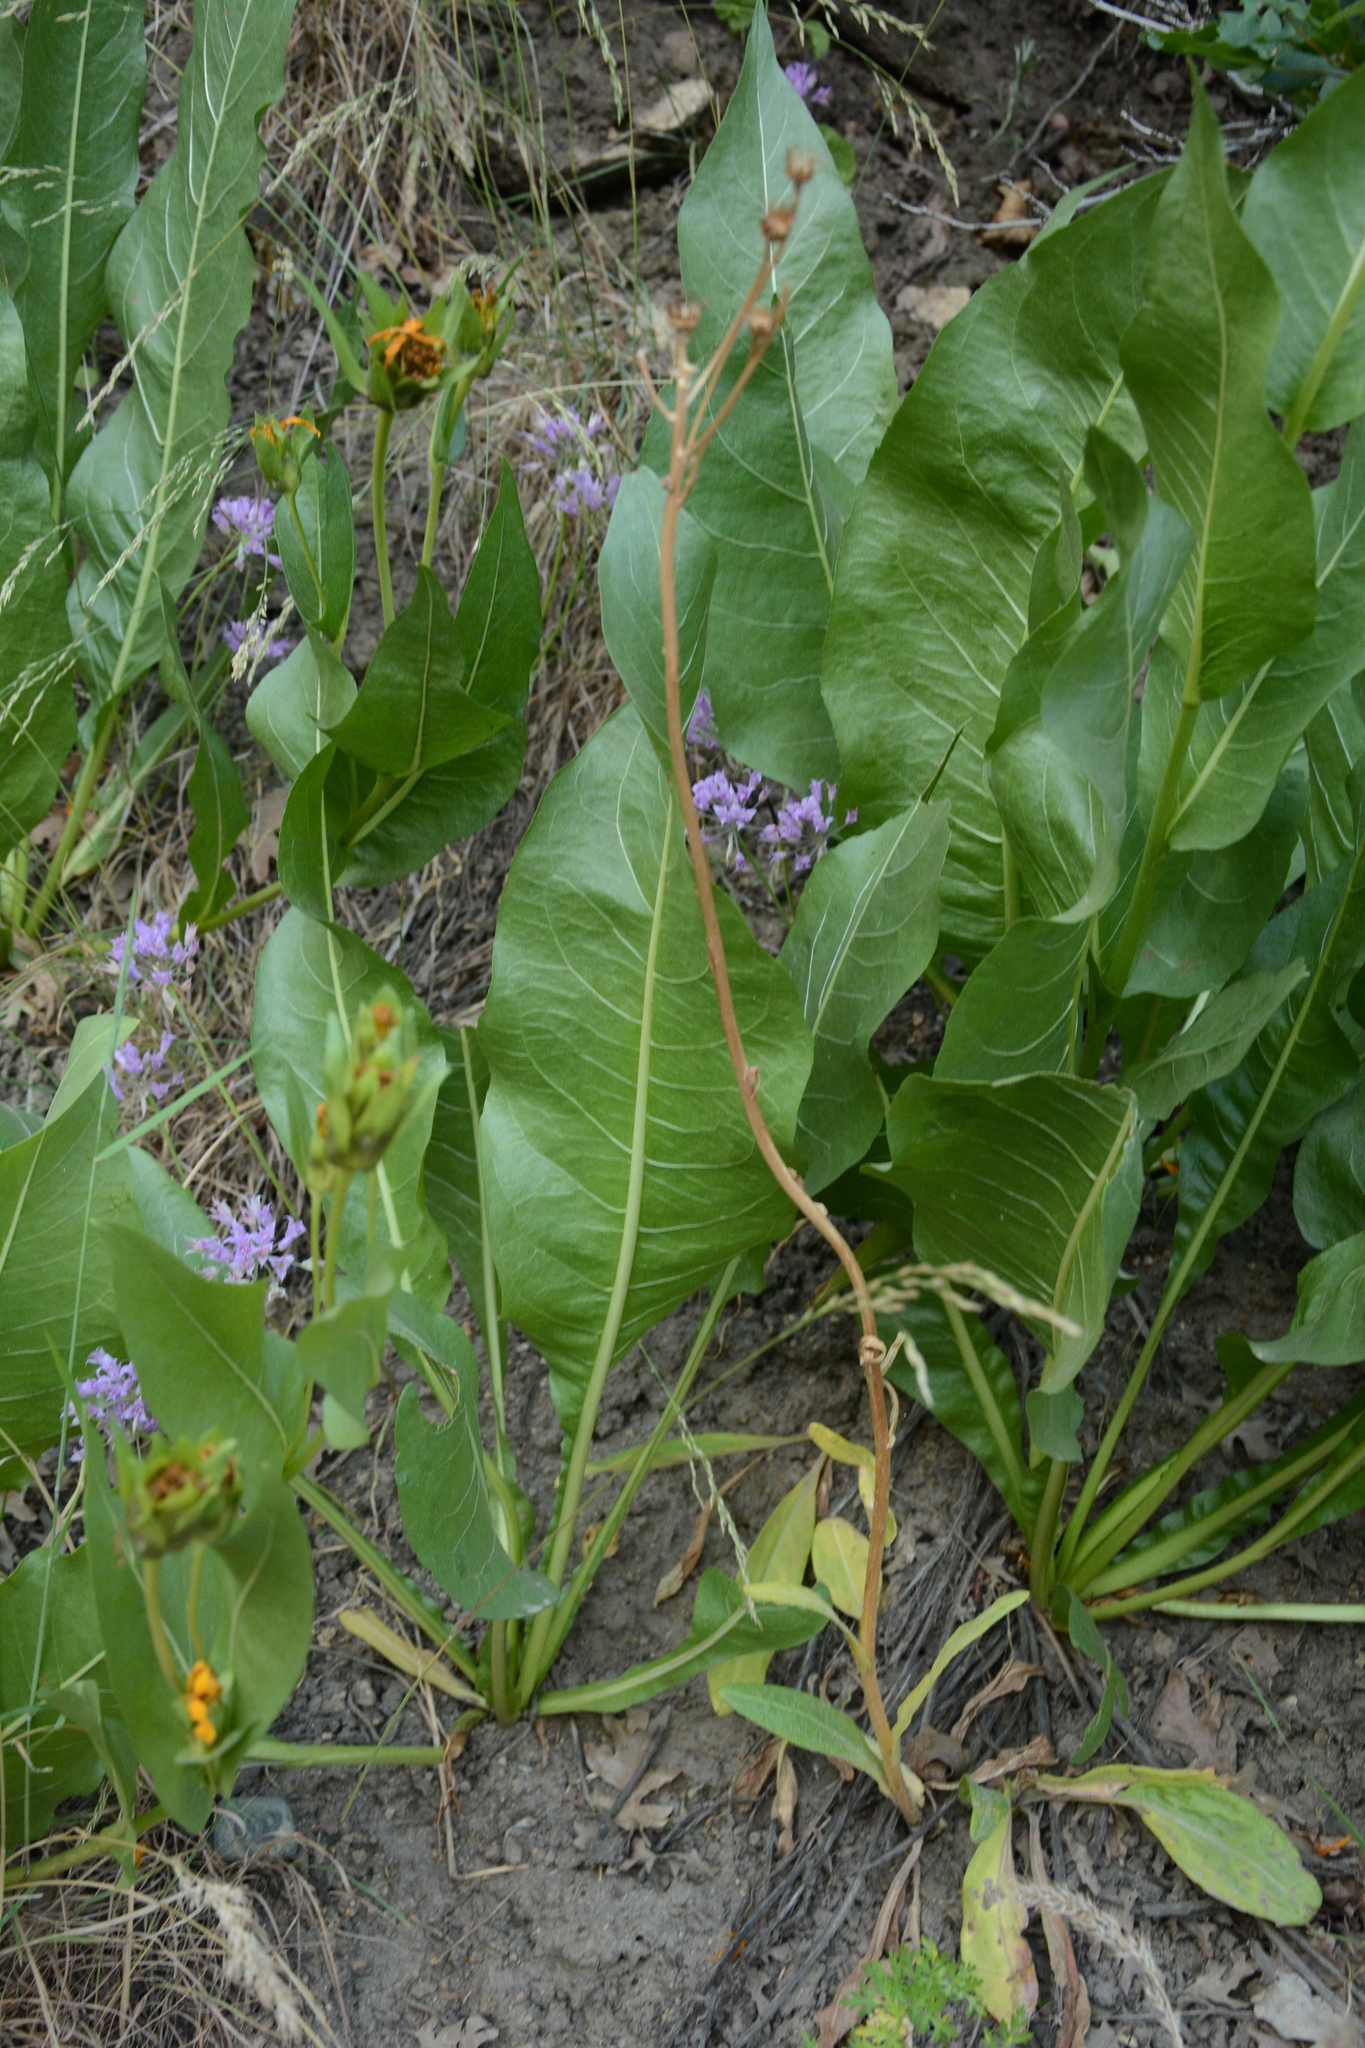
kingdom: Plantae
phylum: Tracheophyta
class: Magnoliopsida
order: Asterales
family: Asteraceae
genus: Wyethia
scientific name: Wyethia amplexicaulis
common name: Northern mule's-ears
